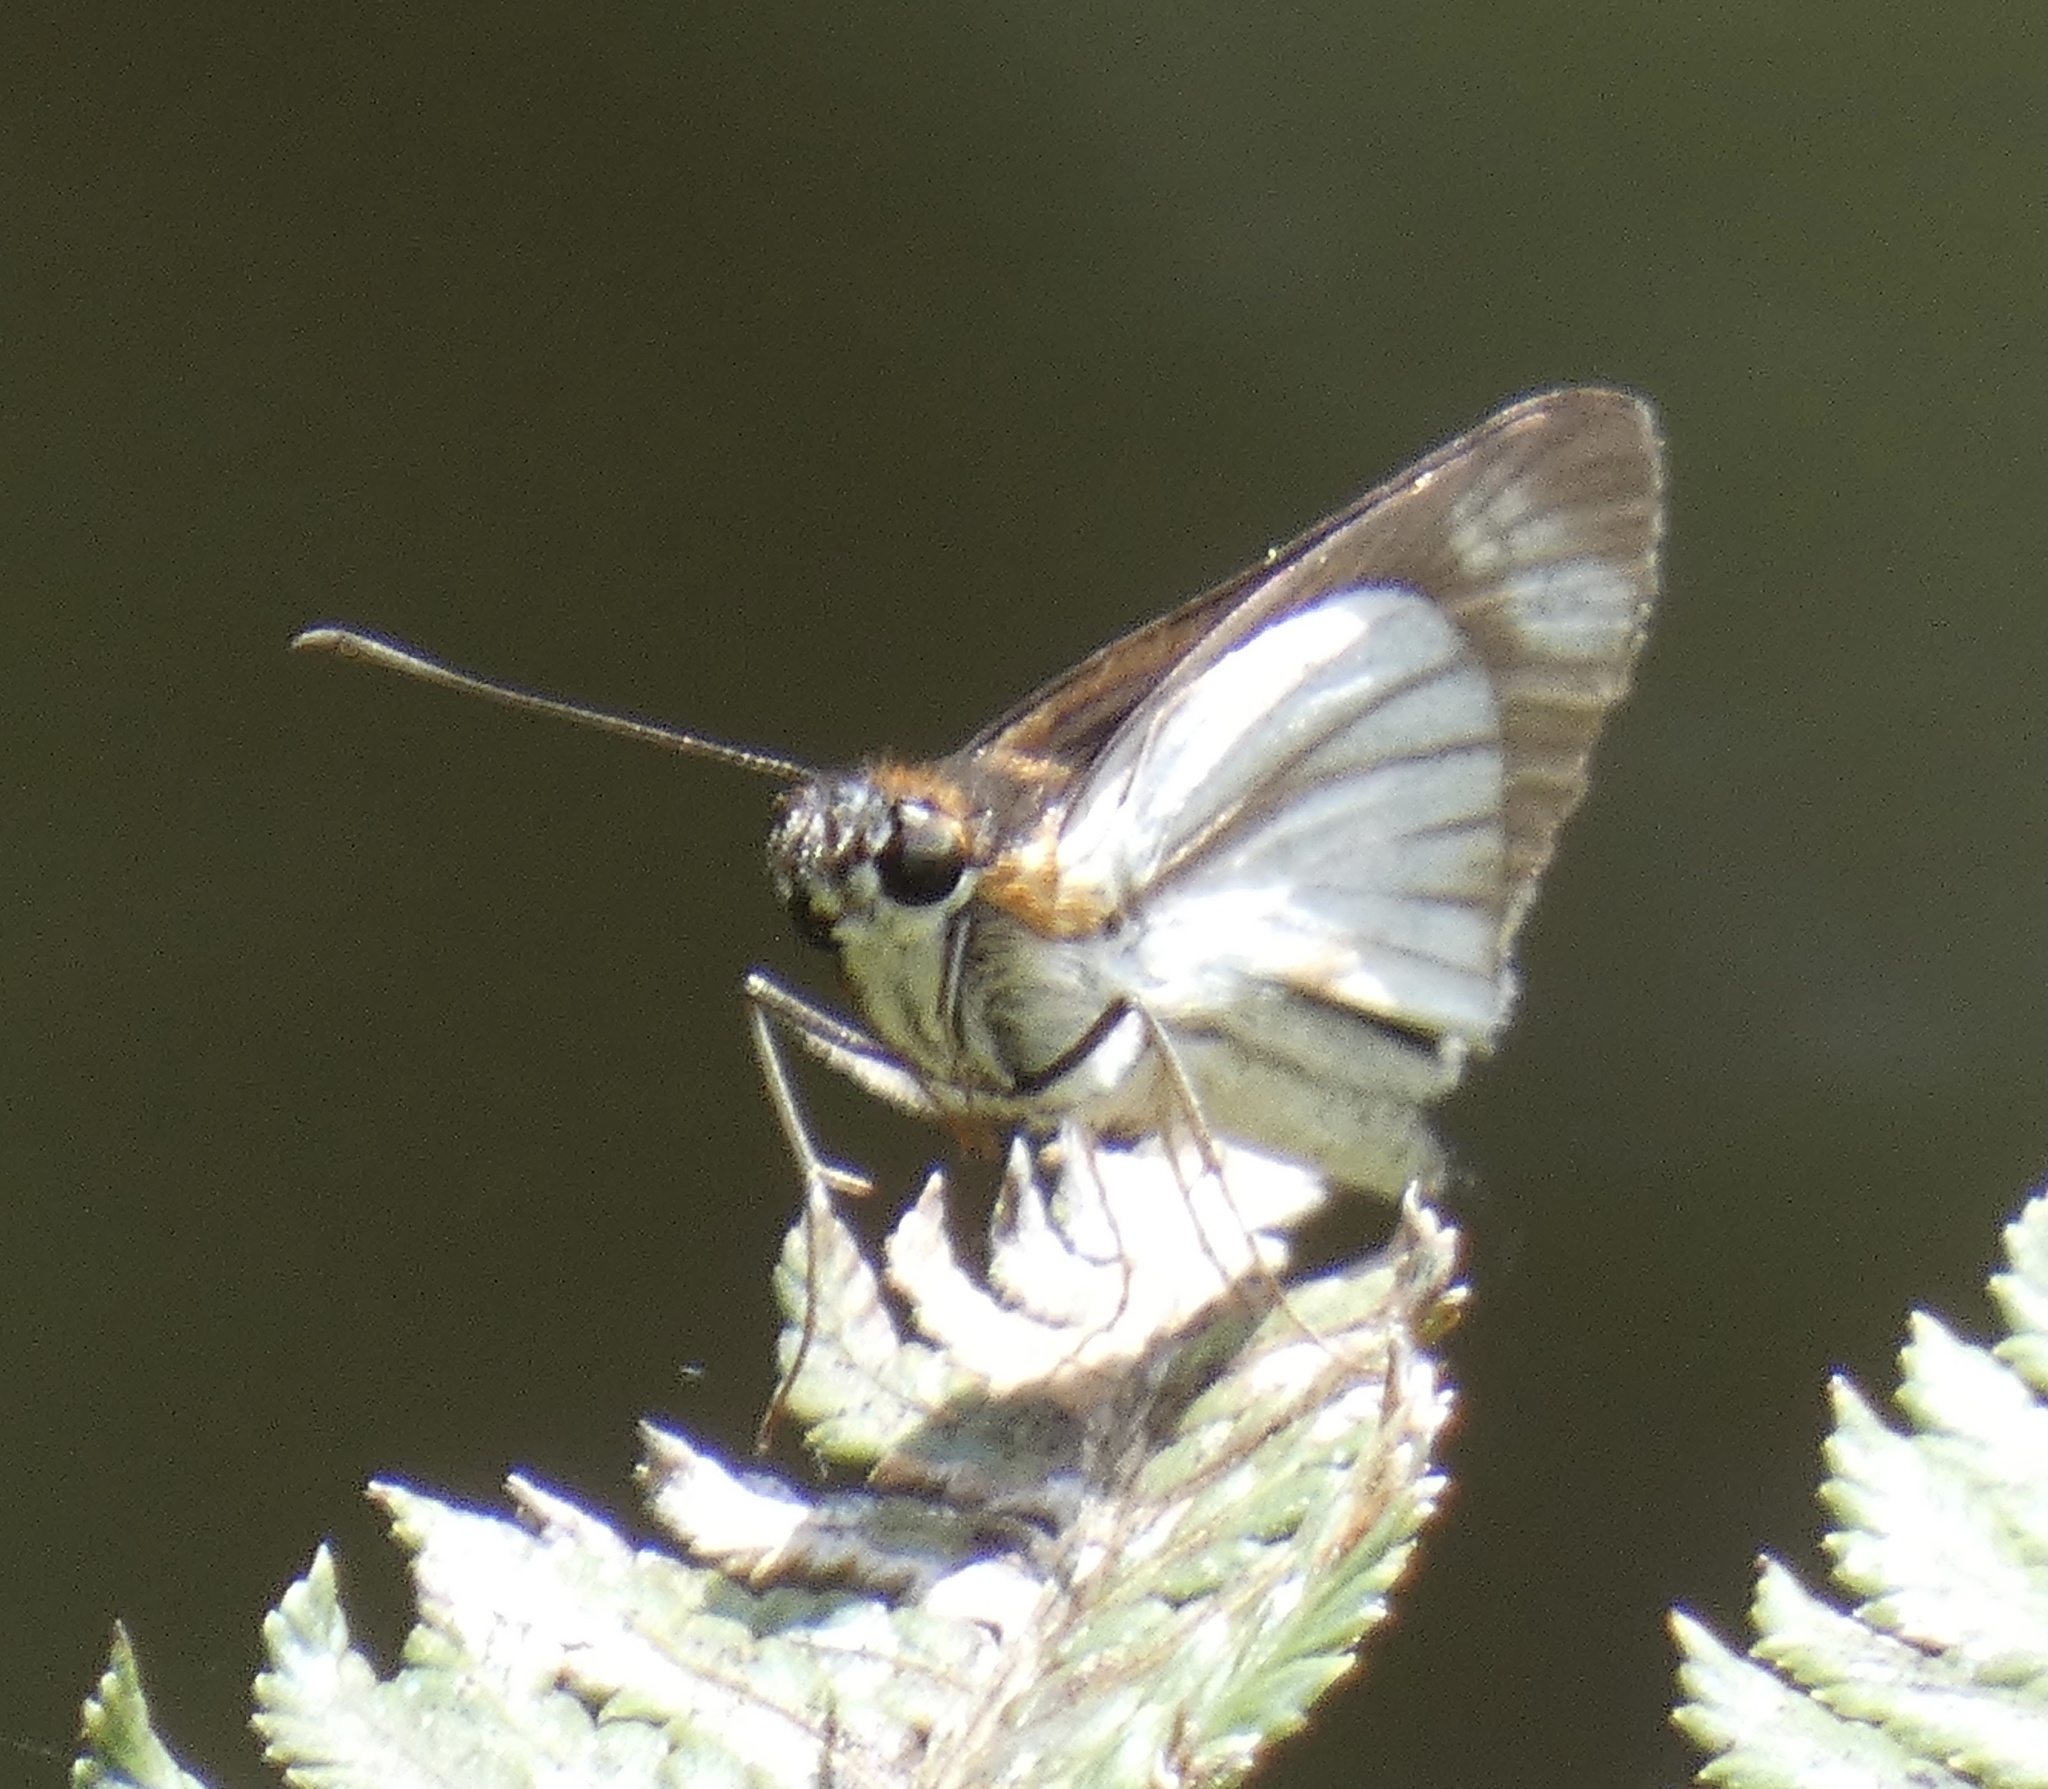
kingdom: Animalia
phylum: Arthropoda
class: Insecta
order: Lepidoptera
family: Hesperiidae
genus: Troyus
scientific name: Troyus
